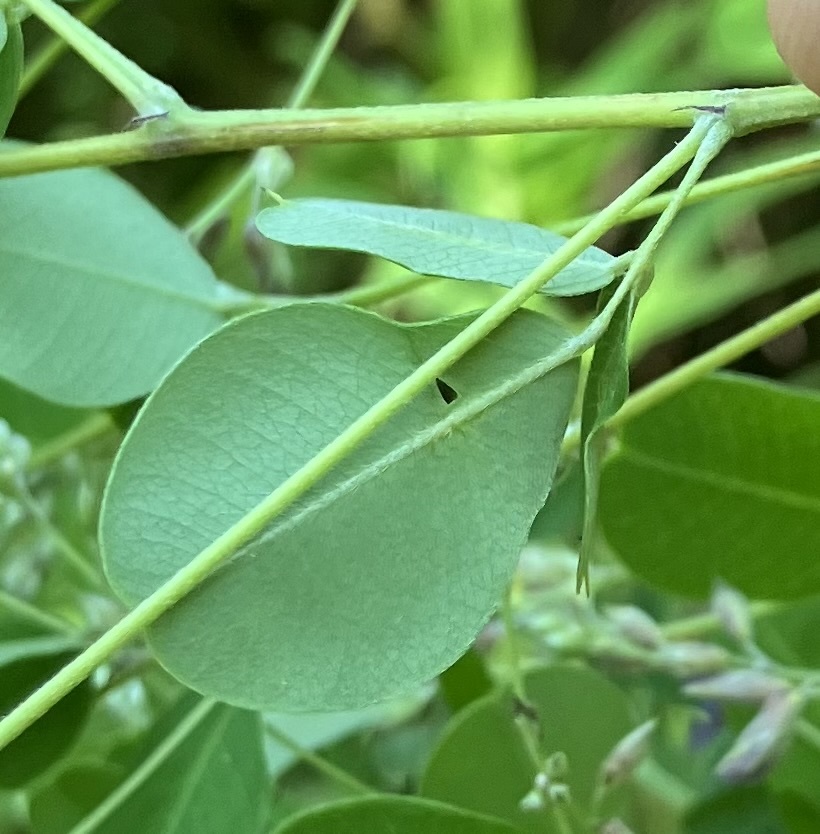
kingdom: Plantae
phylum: Tracheophyta
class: Magnoliopsida
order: Fabales
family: Fabaceae
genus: Lespedeza
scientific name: Lespedeza bicolor
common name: Shrub lespedeza
